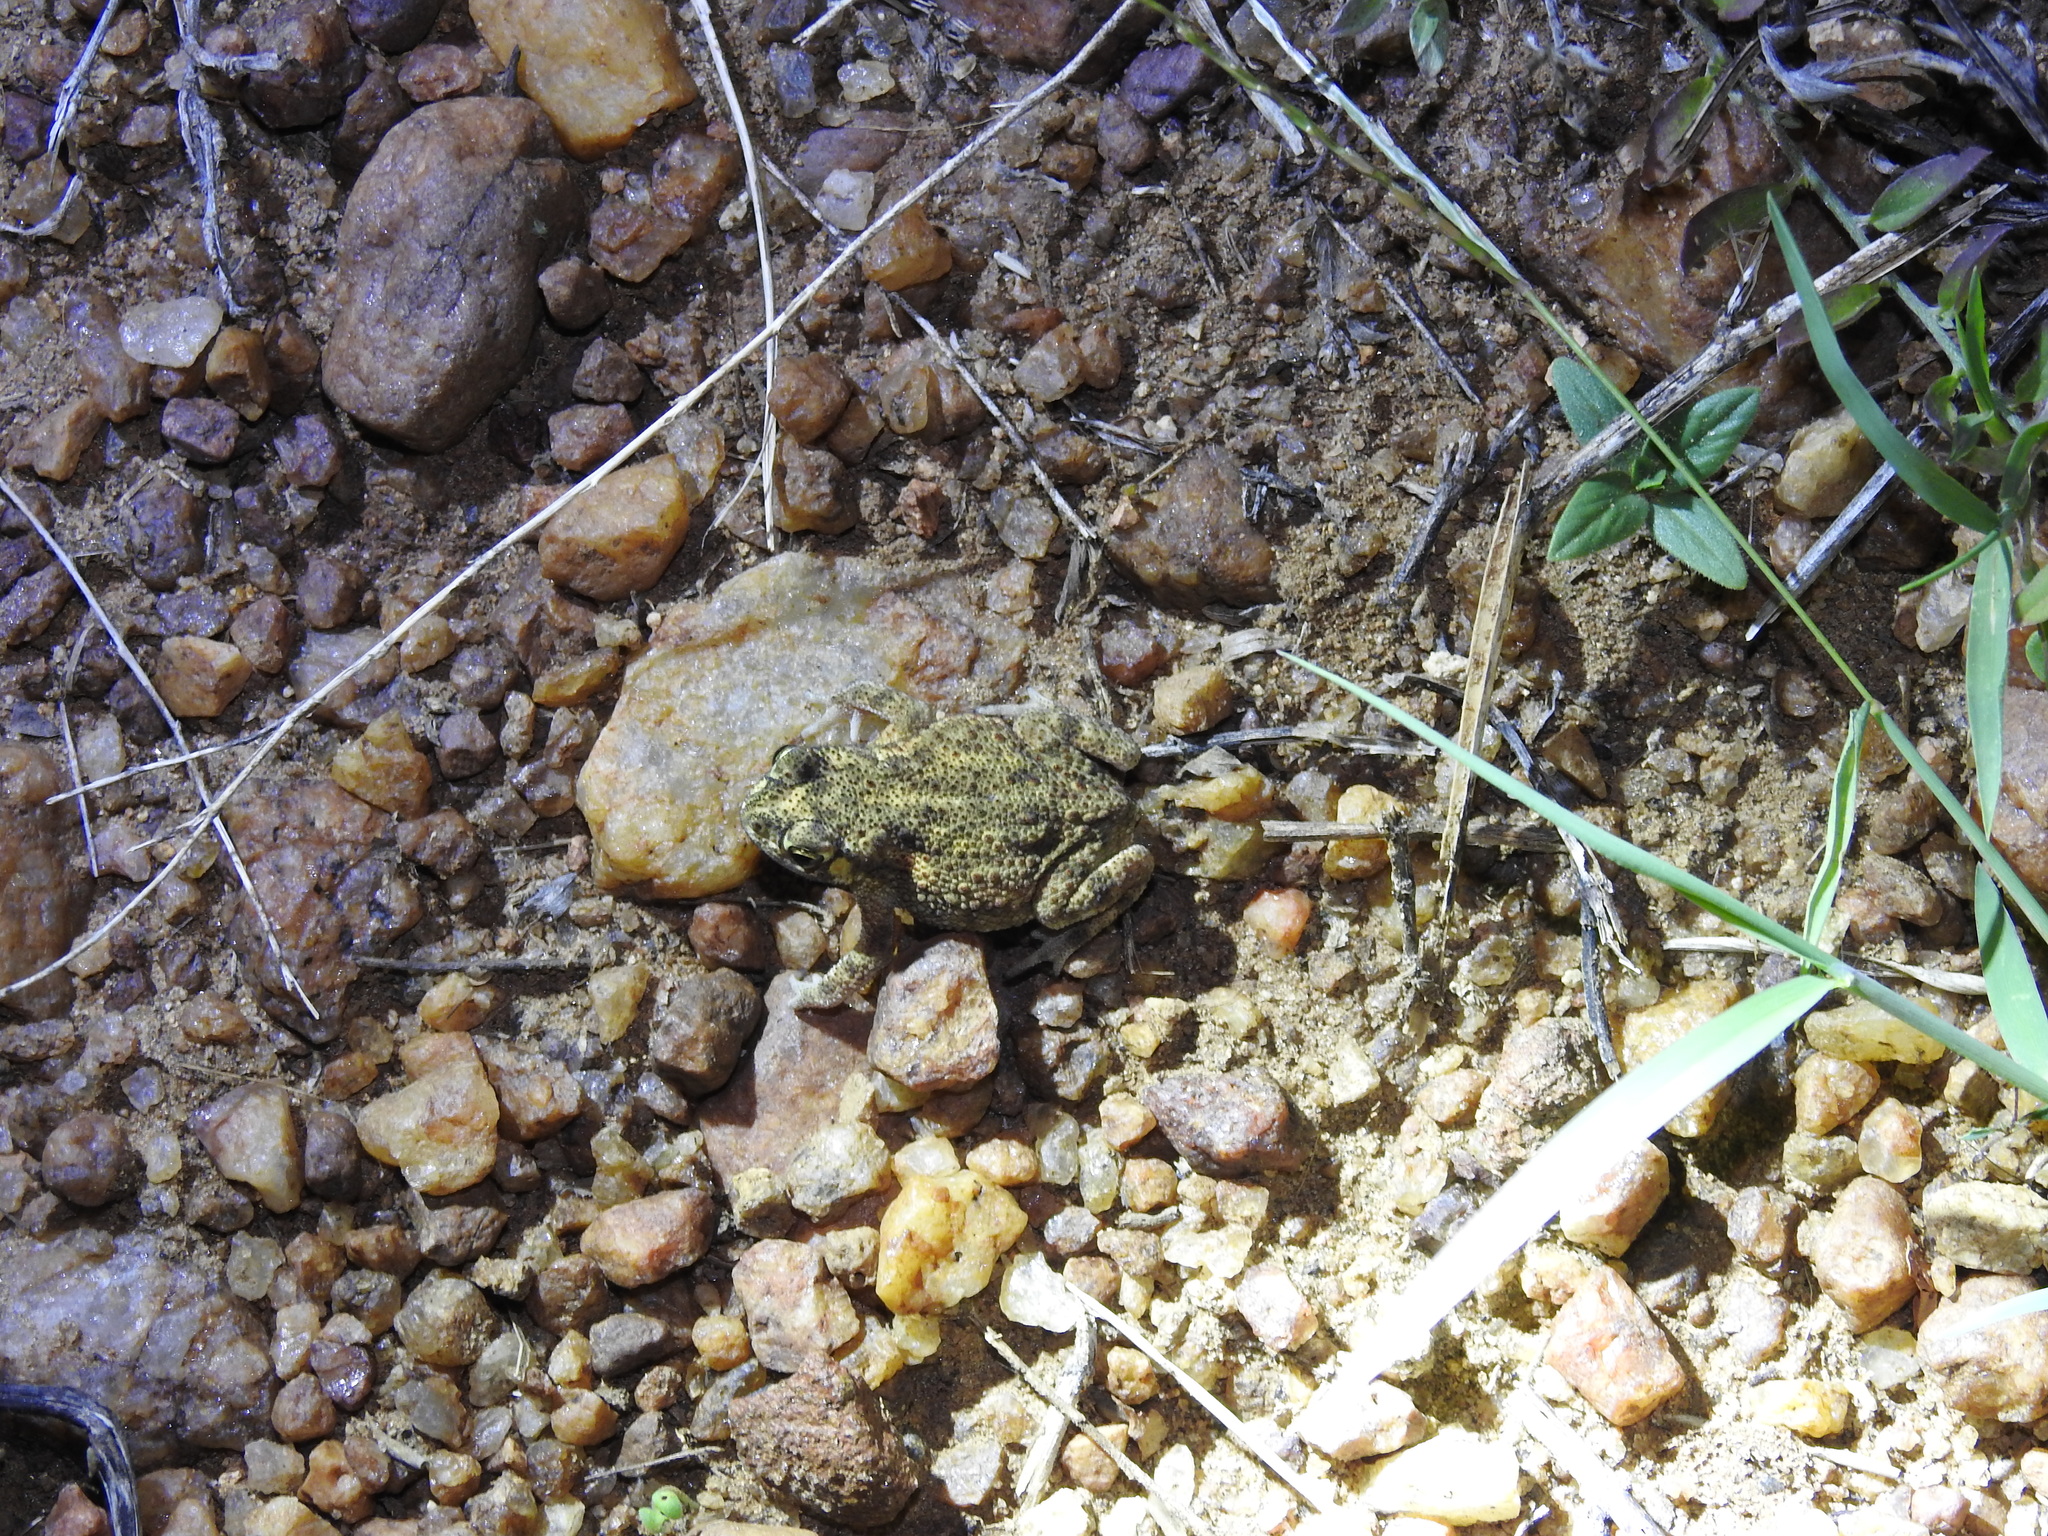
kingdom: Animalia
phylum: Chordata
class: Amphibia
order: Anura
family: Bufonidae
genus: Duttaphrynus
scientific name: Duttaphrynus scaber
